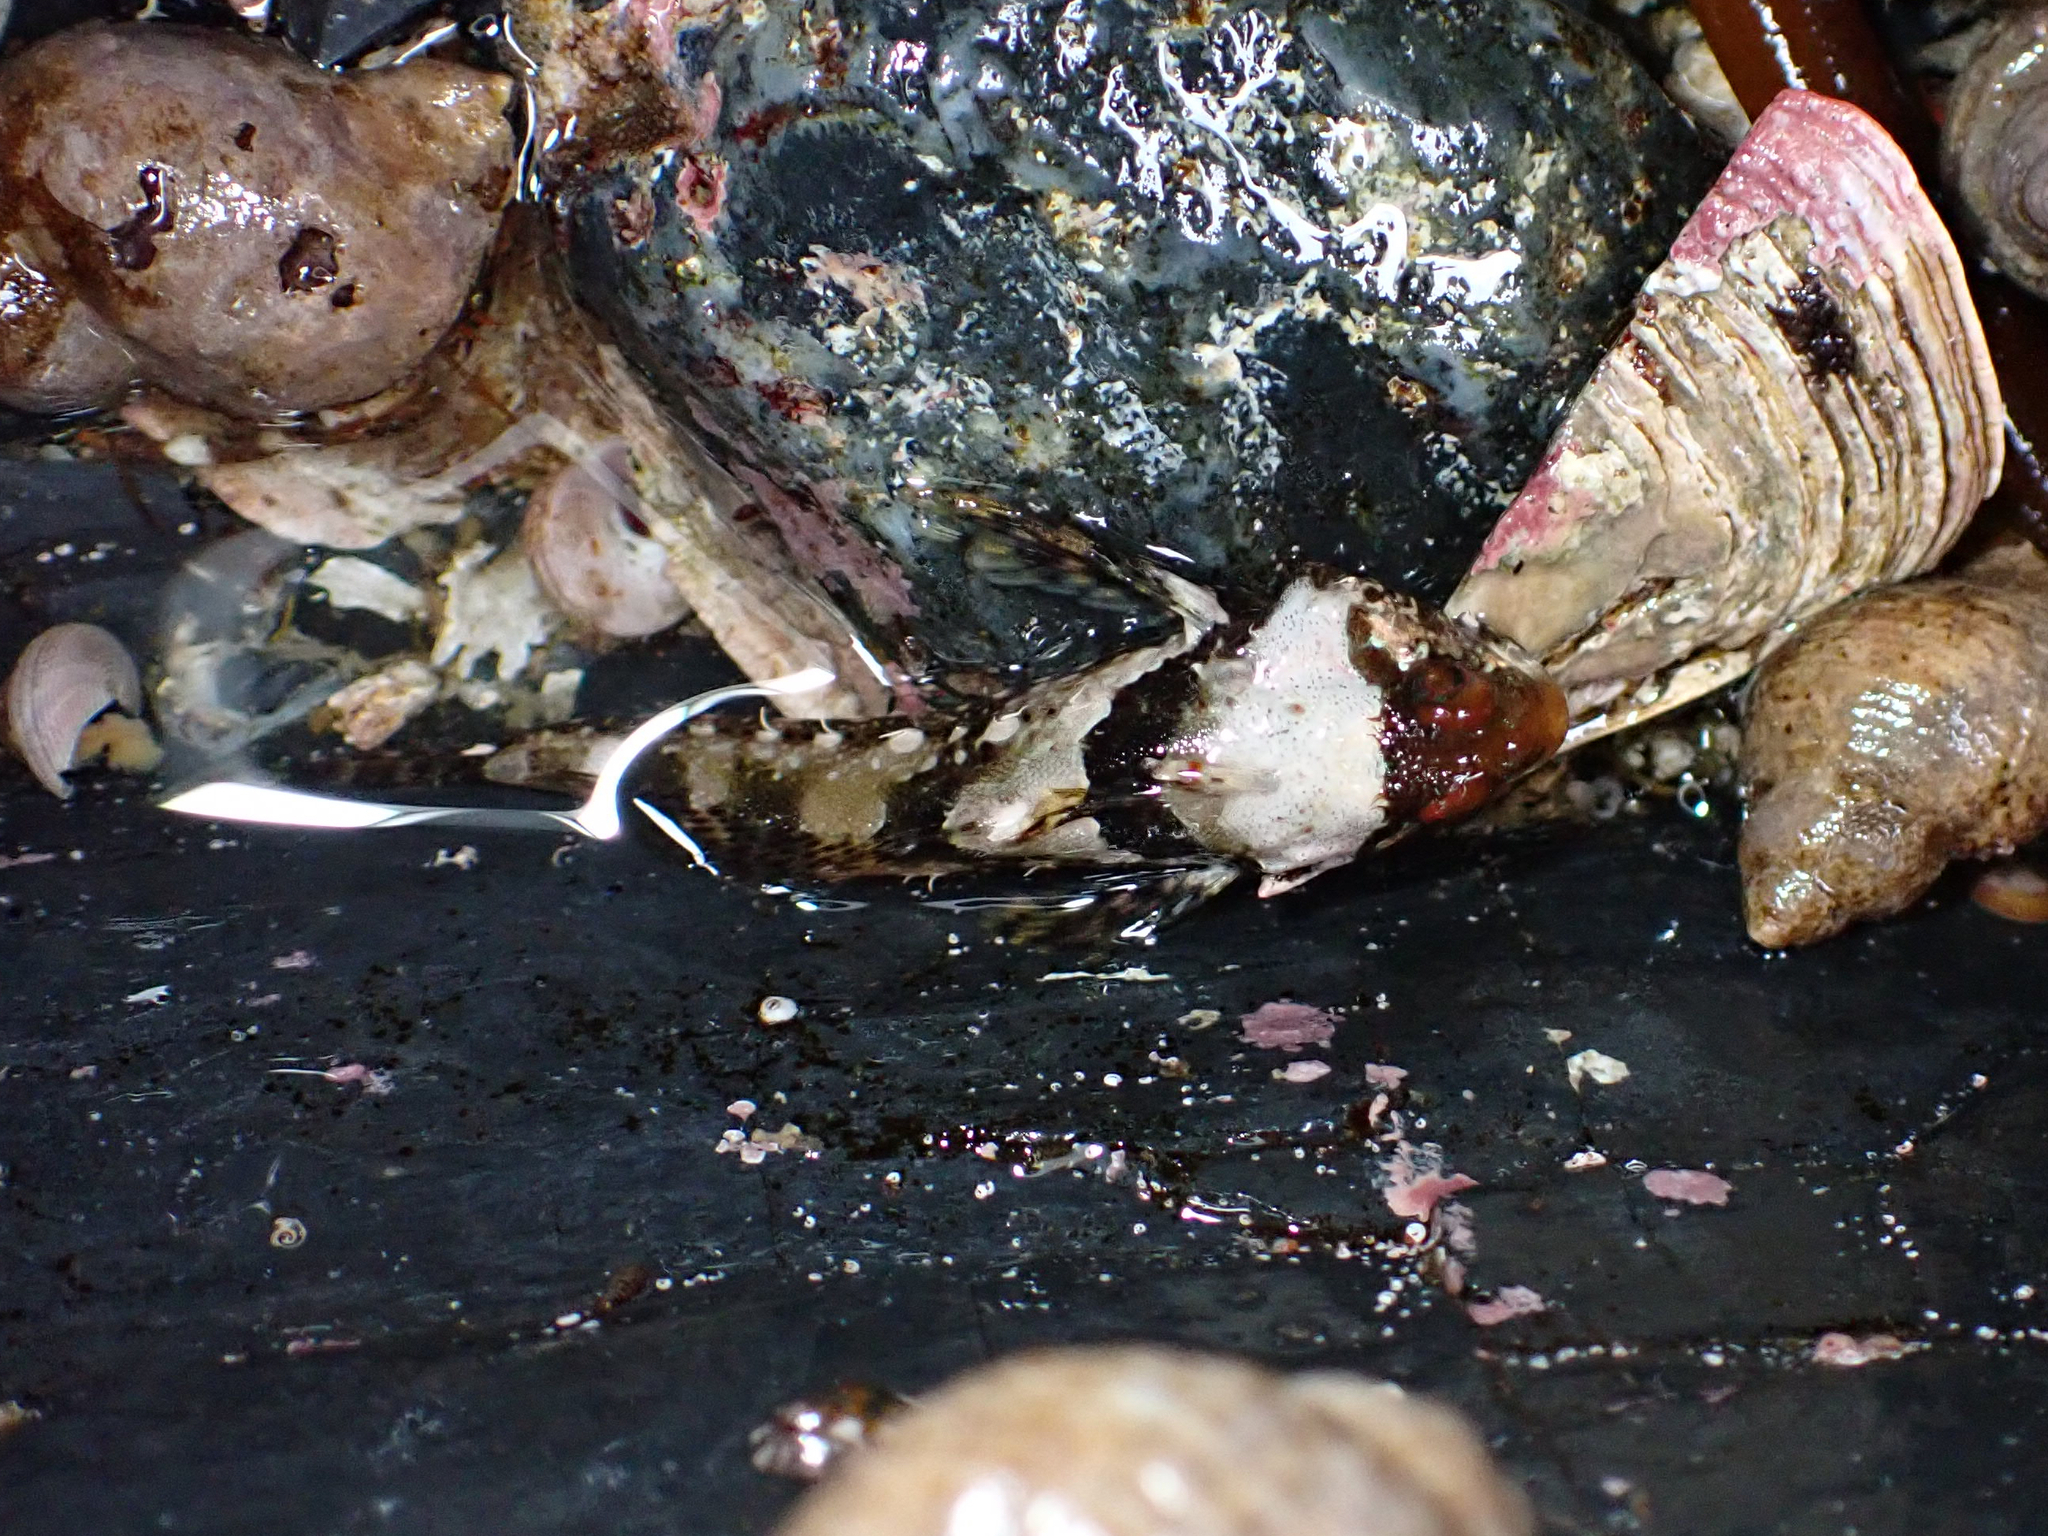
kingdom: Animalia
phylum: Chordata
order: Scorpaeniformes
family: Cottidae
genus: Artedius
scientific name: Artedius lateralis
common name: Smooth-head sculpin
